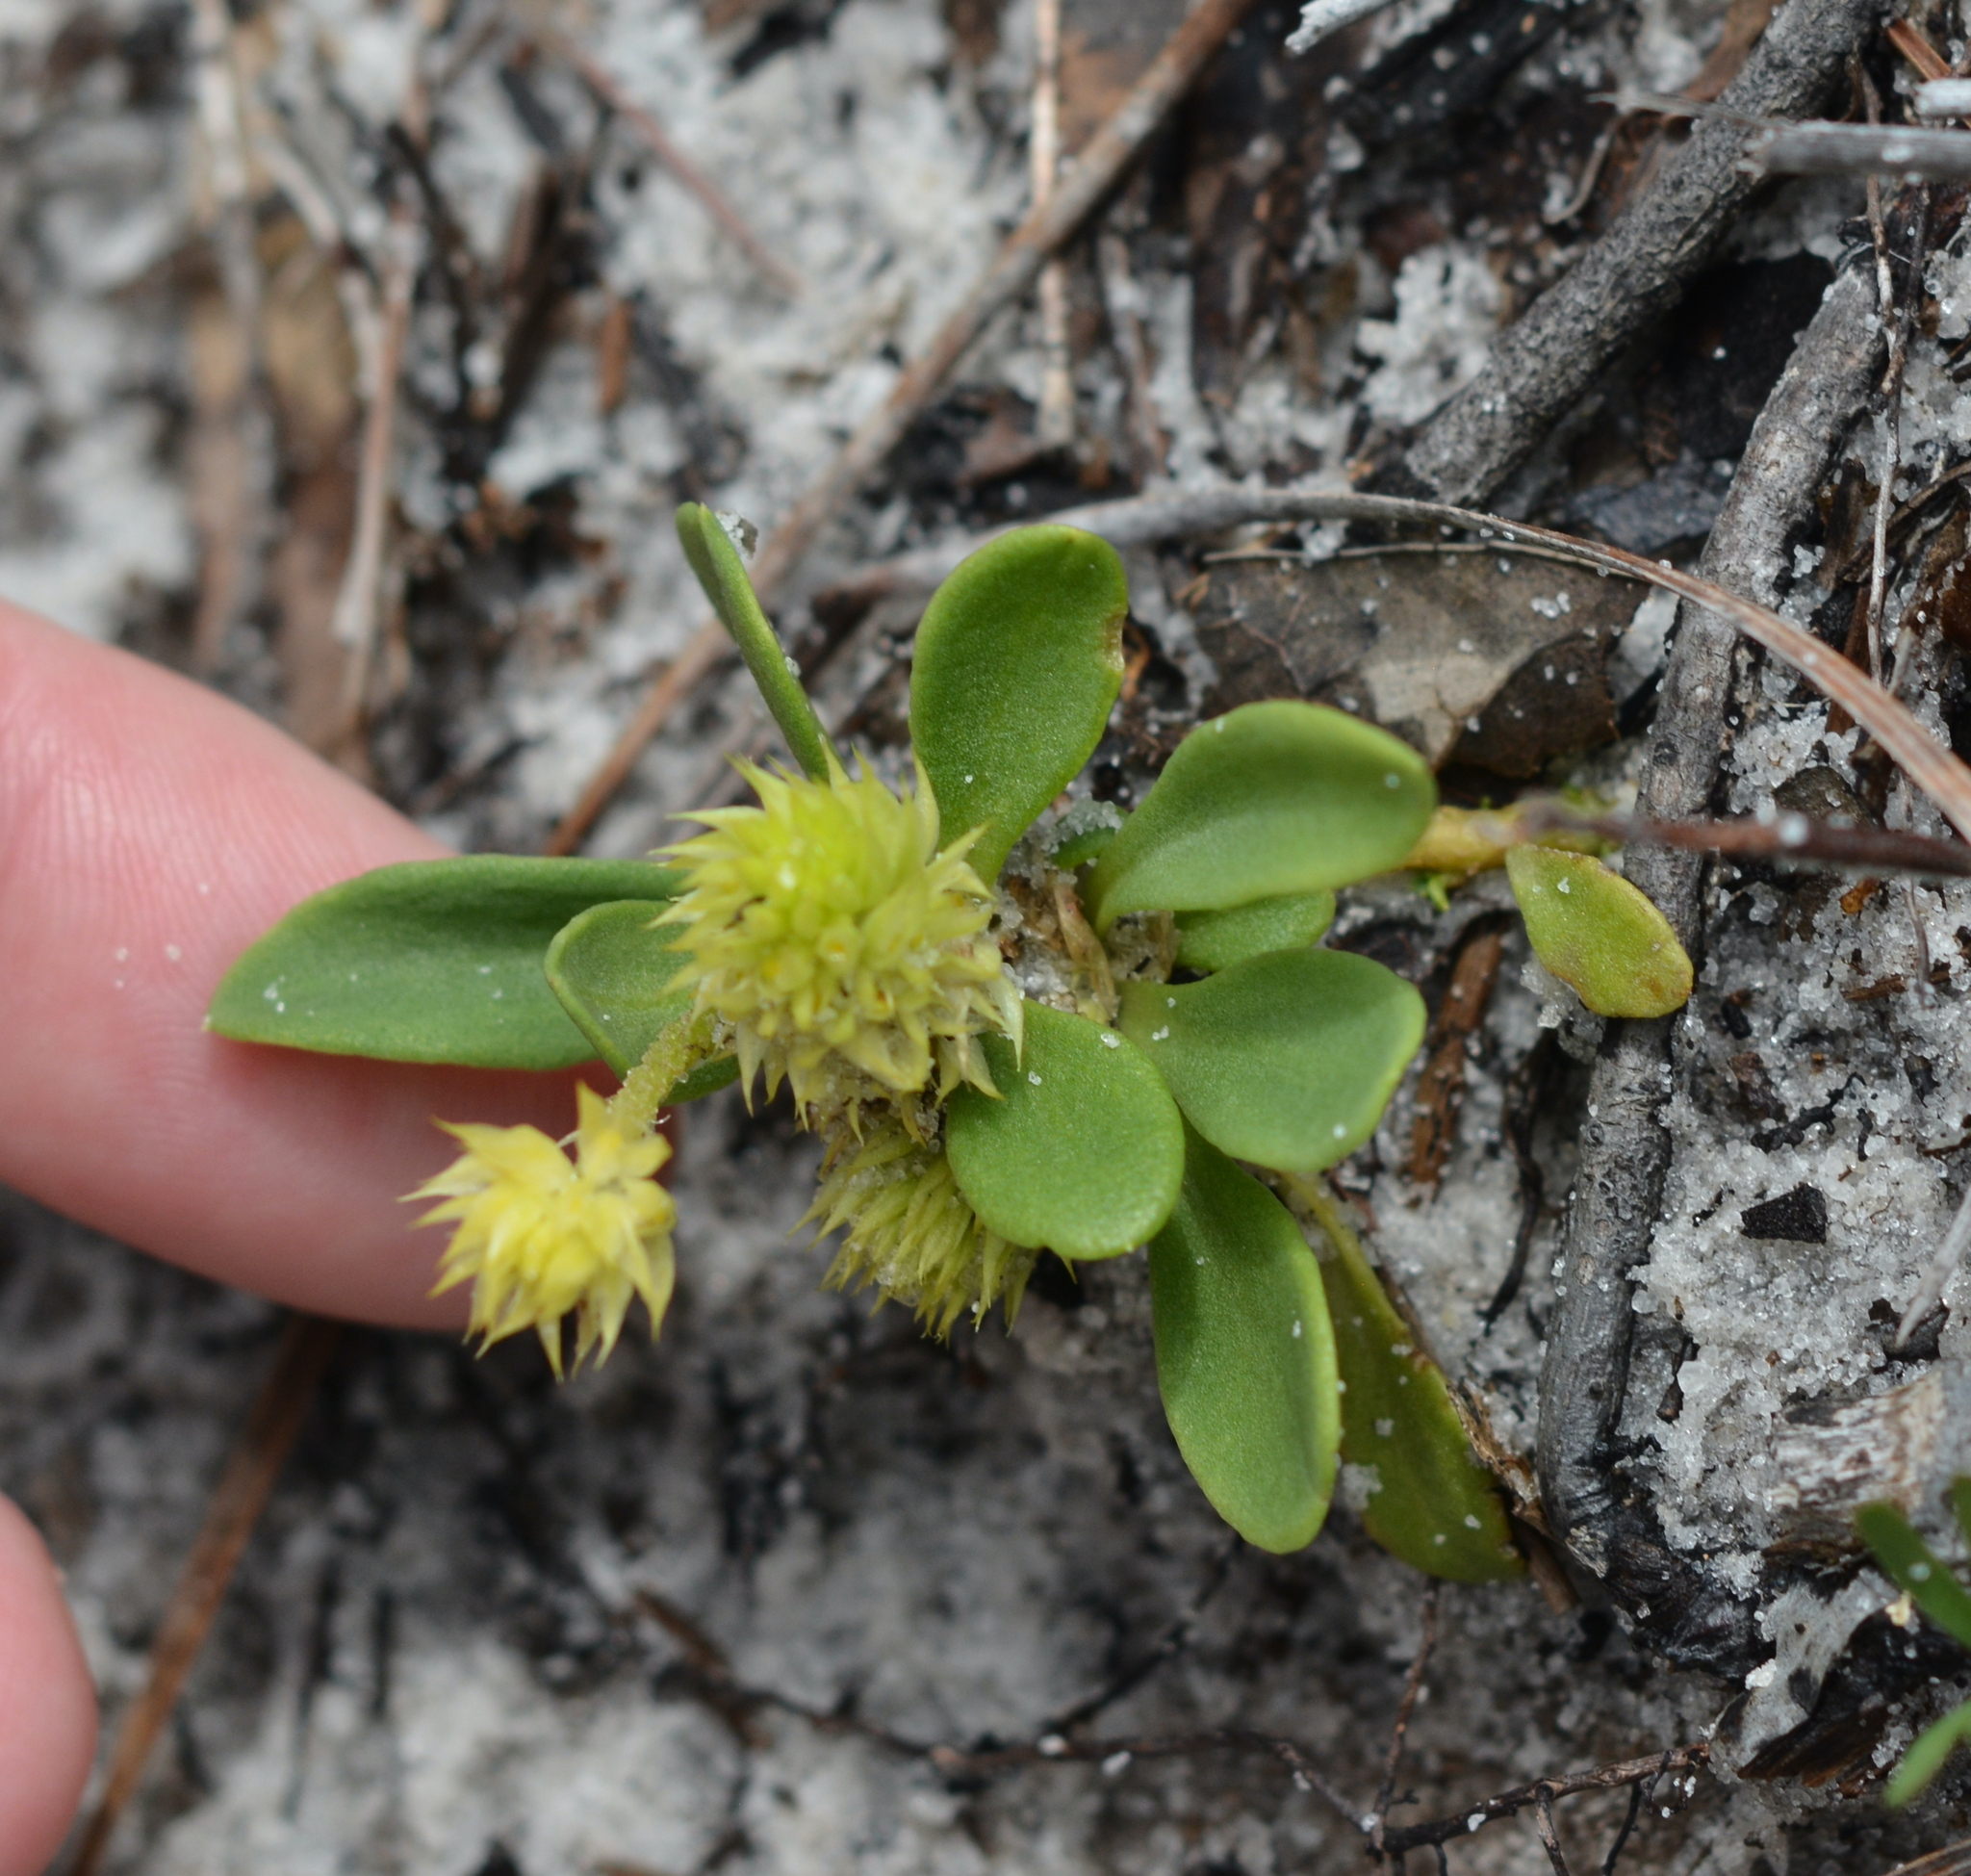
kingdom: Plantae
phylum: Tracheophyta
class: Magnoliopsida
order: Fabales
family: Polygalaceae
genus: Polygala
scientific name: Polygala nana
